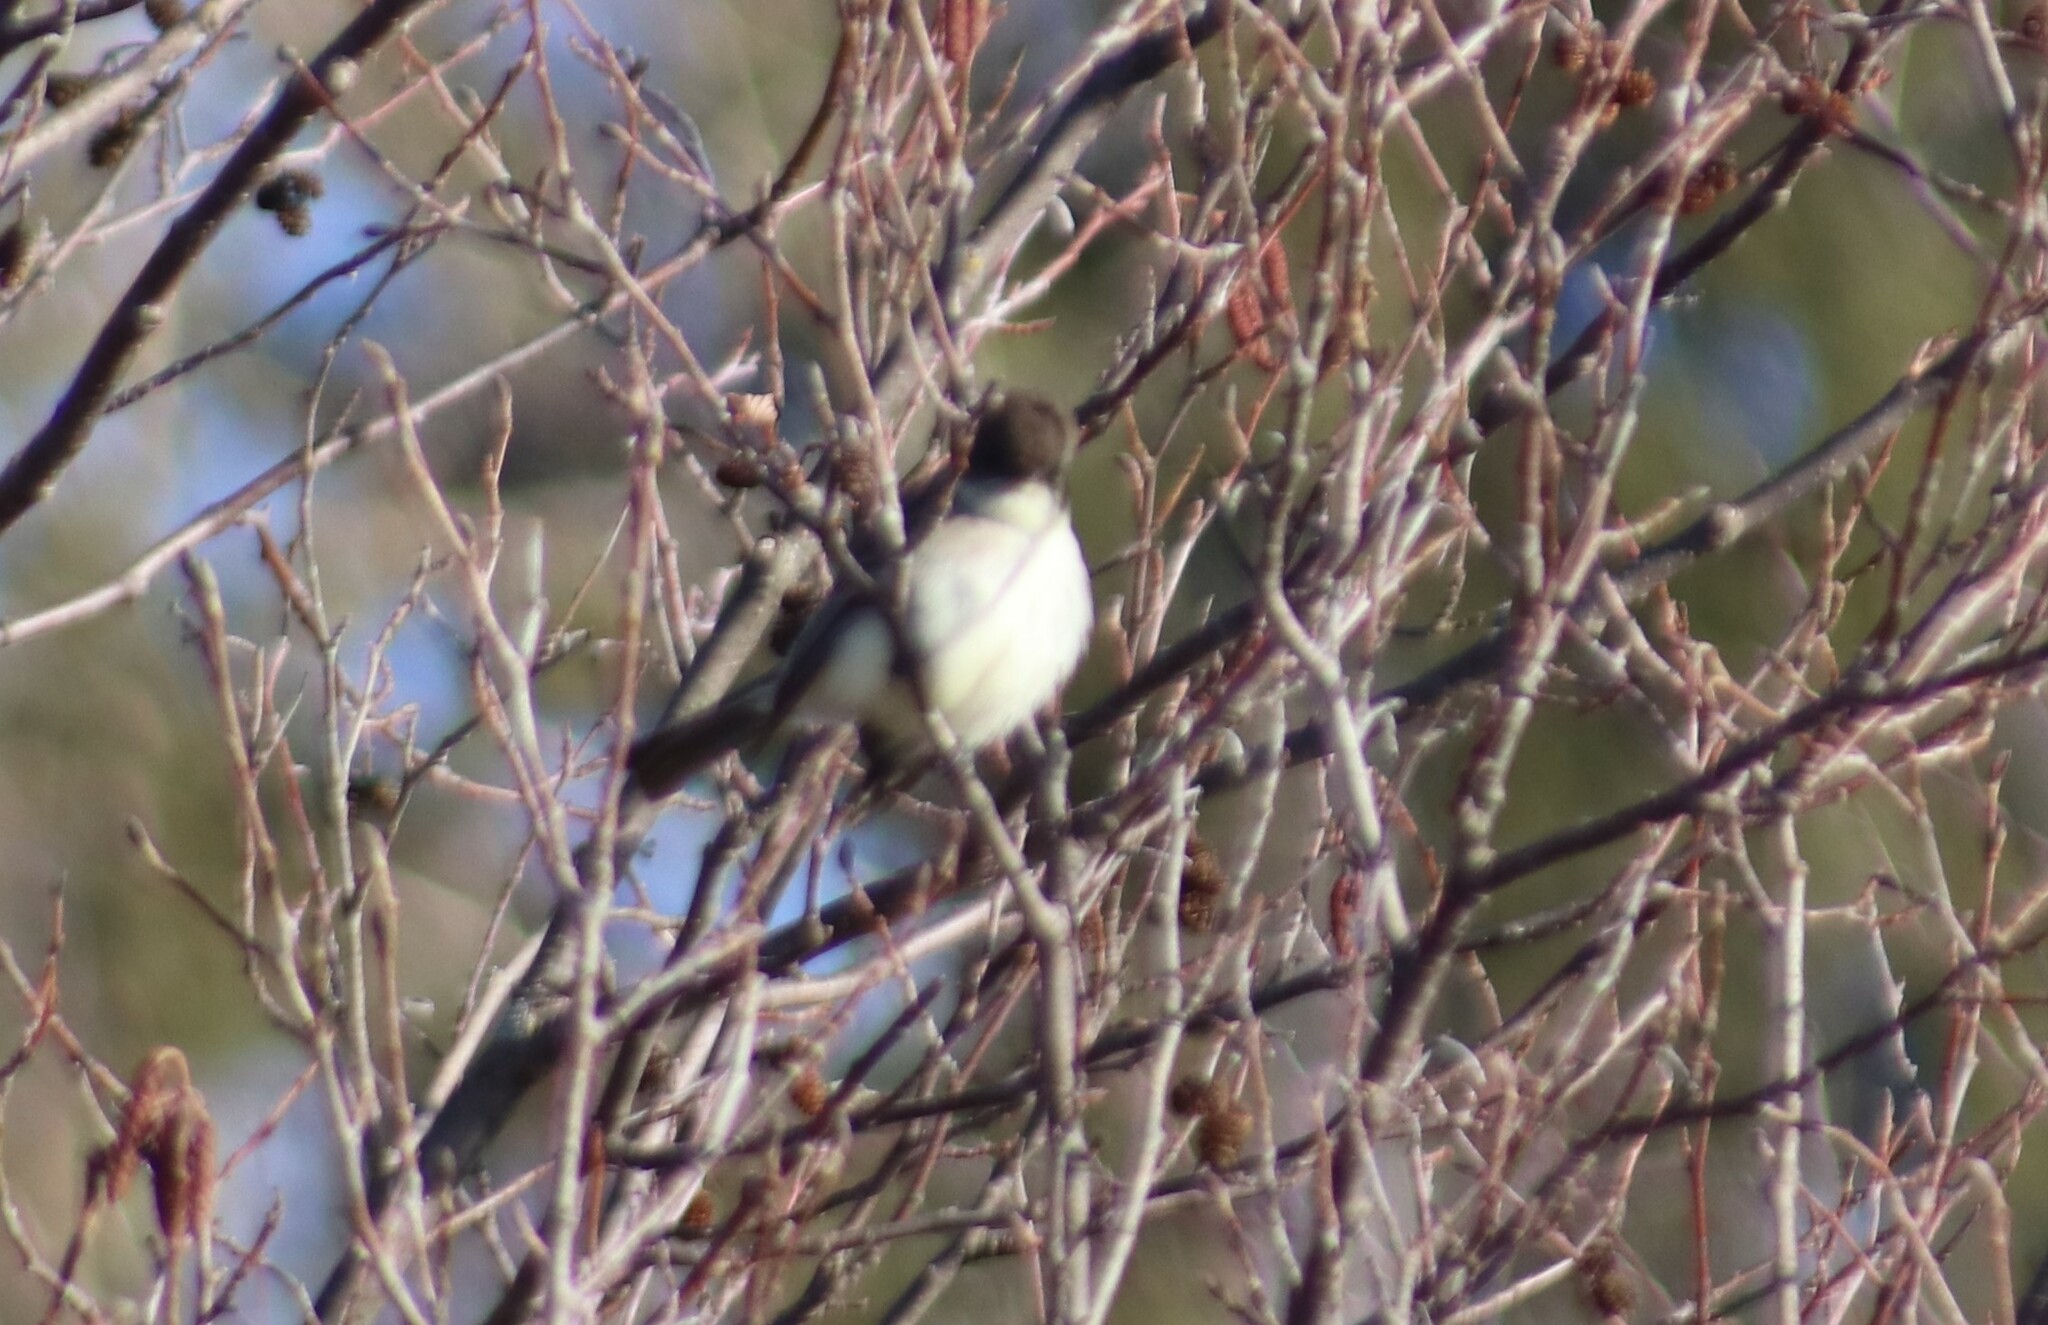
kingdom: Animalia
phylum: Chordata
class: Aves
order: Passeriformes
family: Tyrannidae
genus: Sayornis
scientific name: Sayornis phoebe
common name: Eastern phoebe
